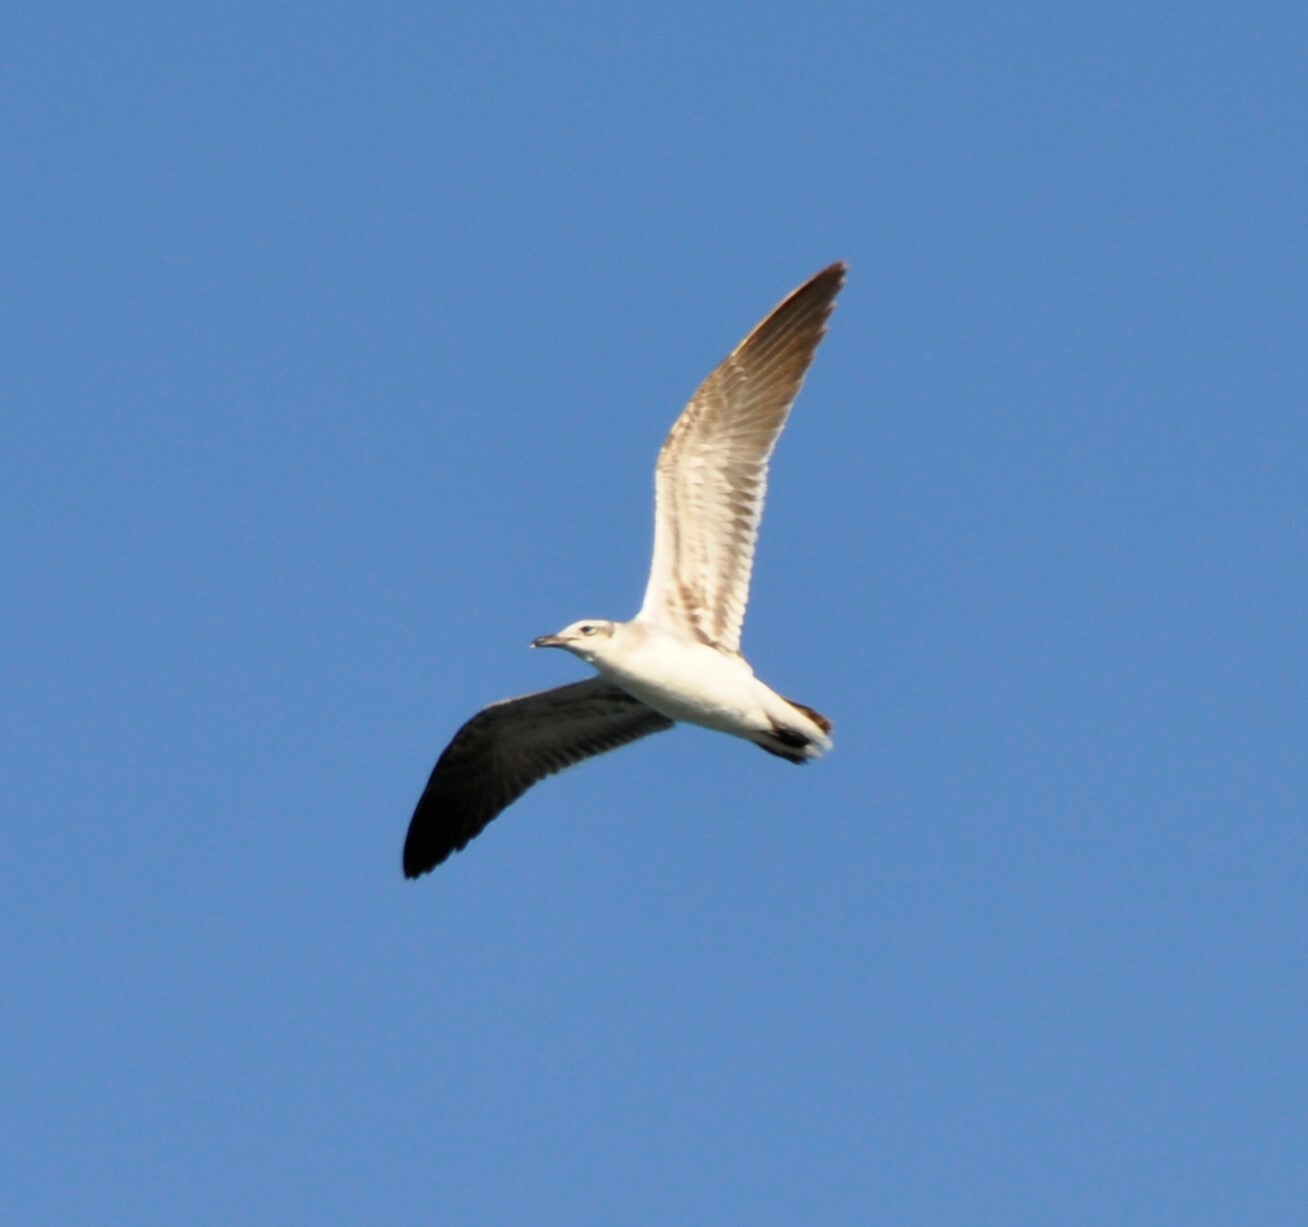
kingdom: Animalia
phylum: Chordata
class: Aves
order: Charadriiformes
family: Laridae
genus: Leucophaeus
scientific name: Leucophaeus atricilla
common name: Laughing gull
